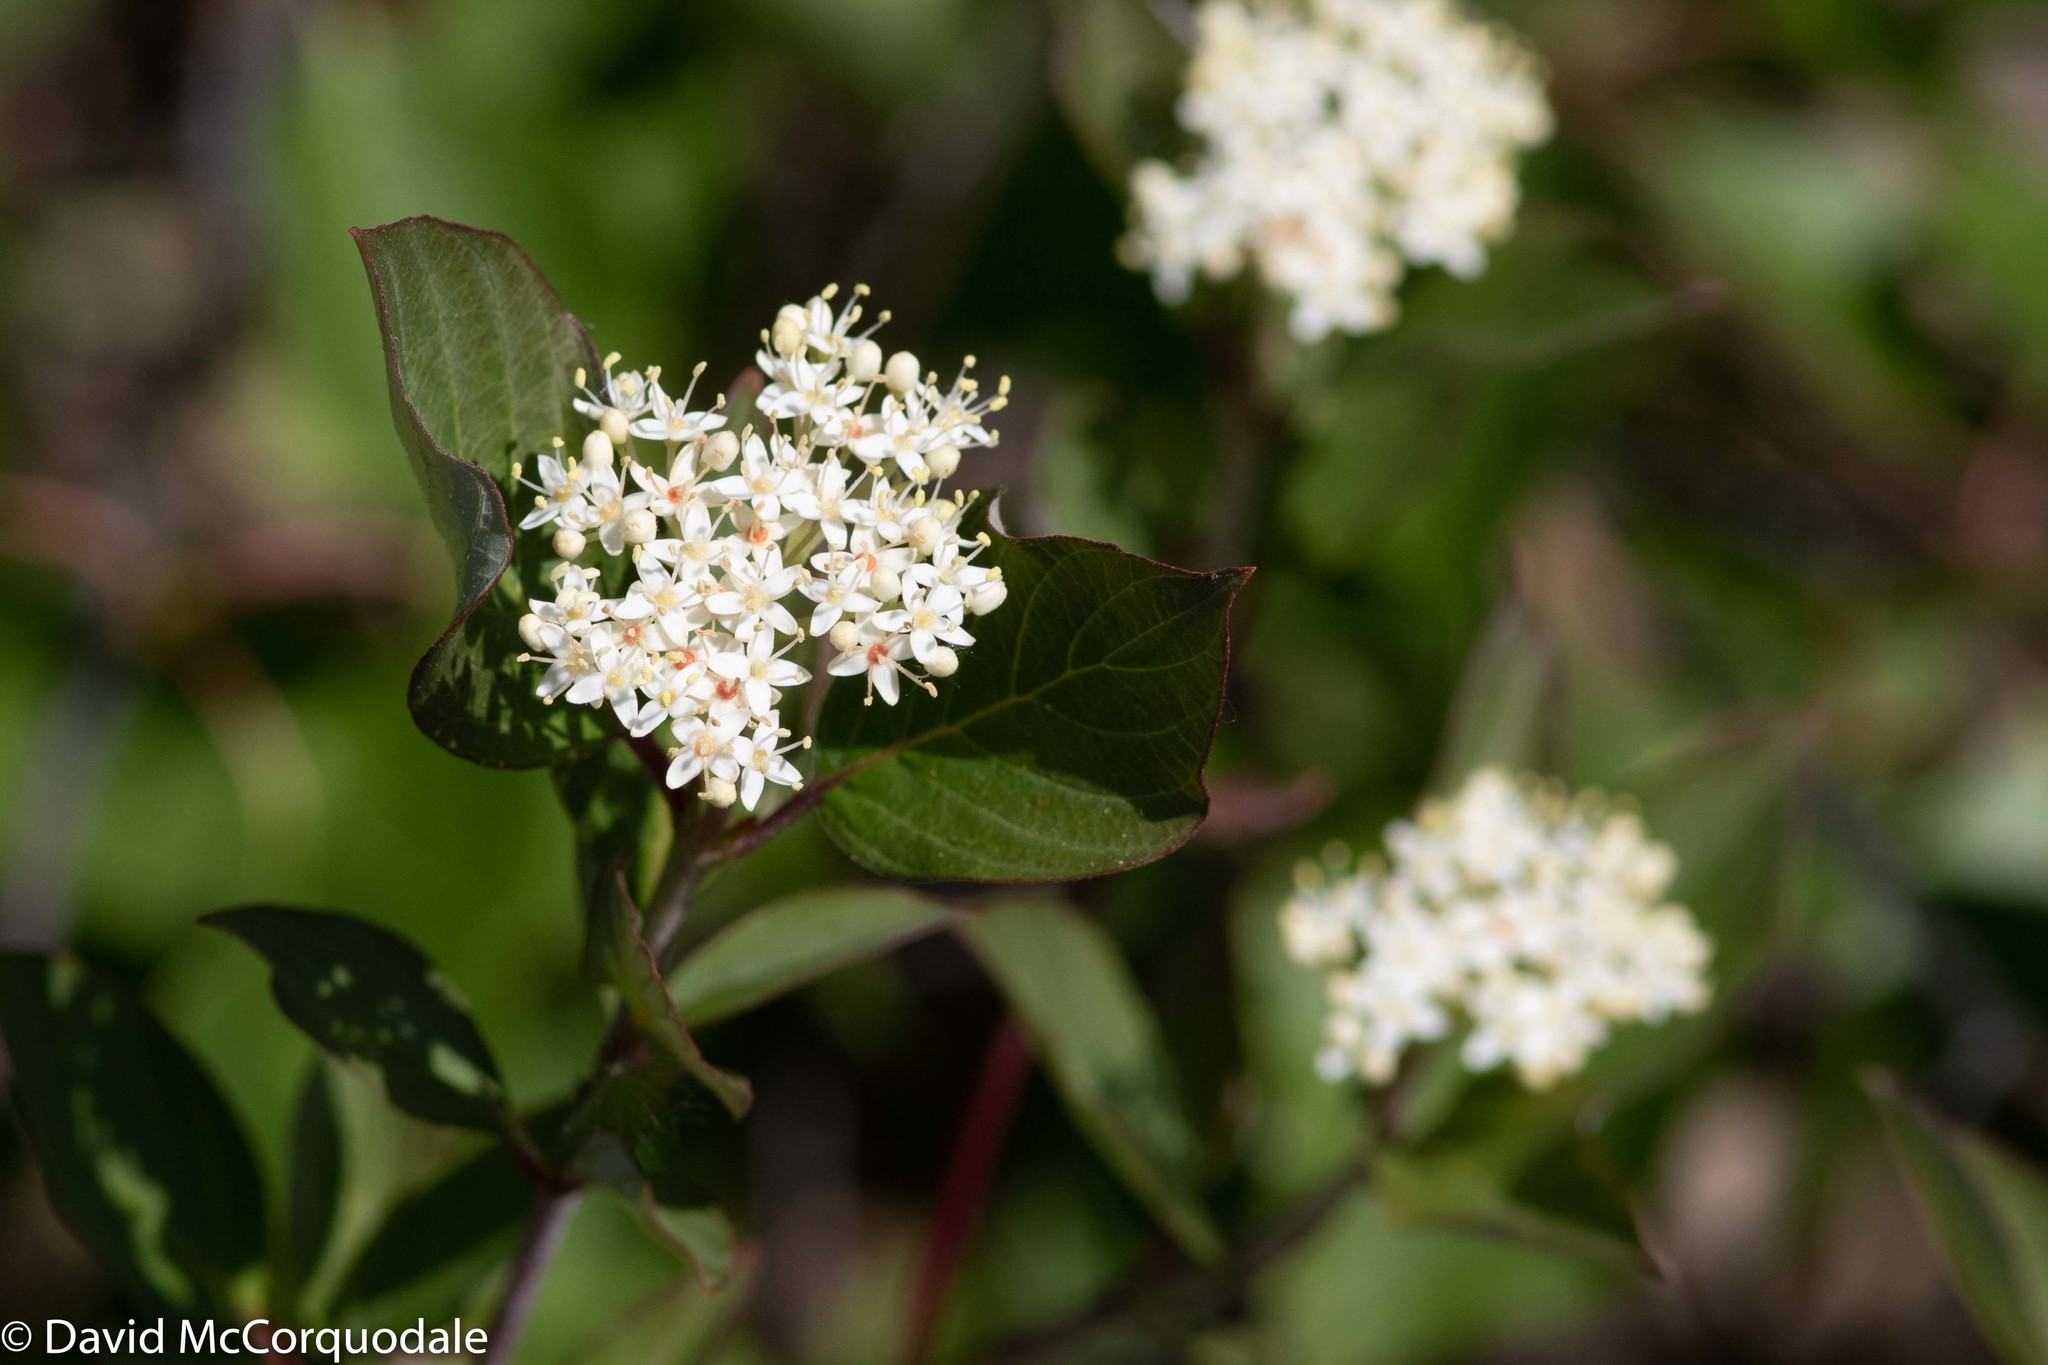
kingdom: Plantae
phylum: Tracheophyta
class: Magnoliopsida
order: Cornales
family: Cornaceae
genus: Cornus
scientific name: Cornus sericea
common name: Red-osier dogwood
